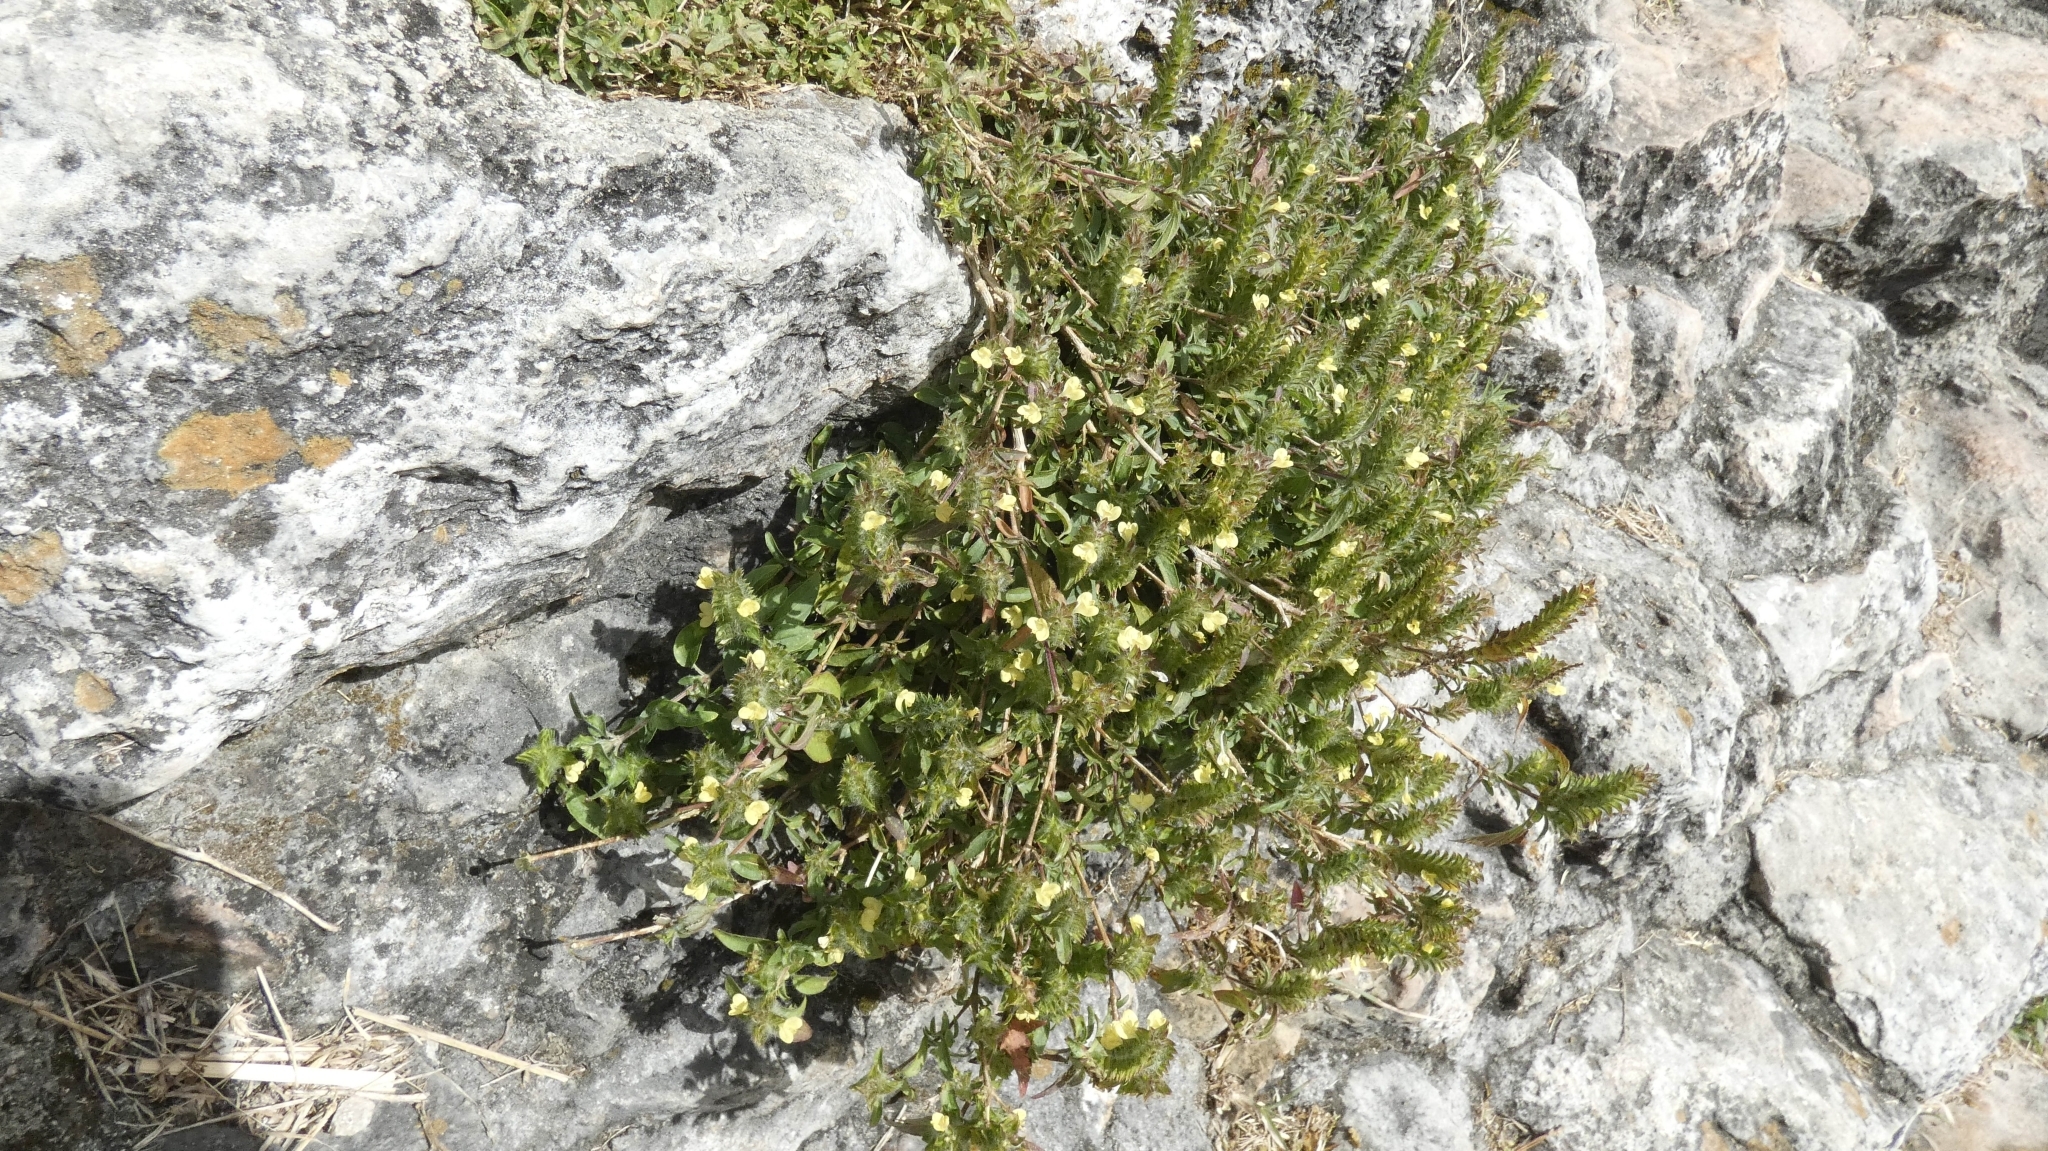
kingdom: Plantae
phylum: Tracheophyta
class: Magnoliopsida
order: Lamiales
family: Acanthaceae
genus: Tetramerium
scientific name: Tetramerium nervosum
